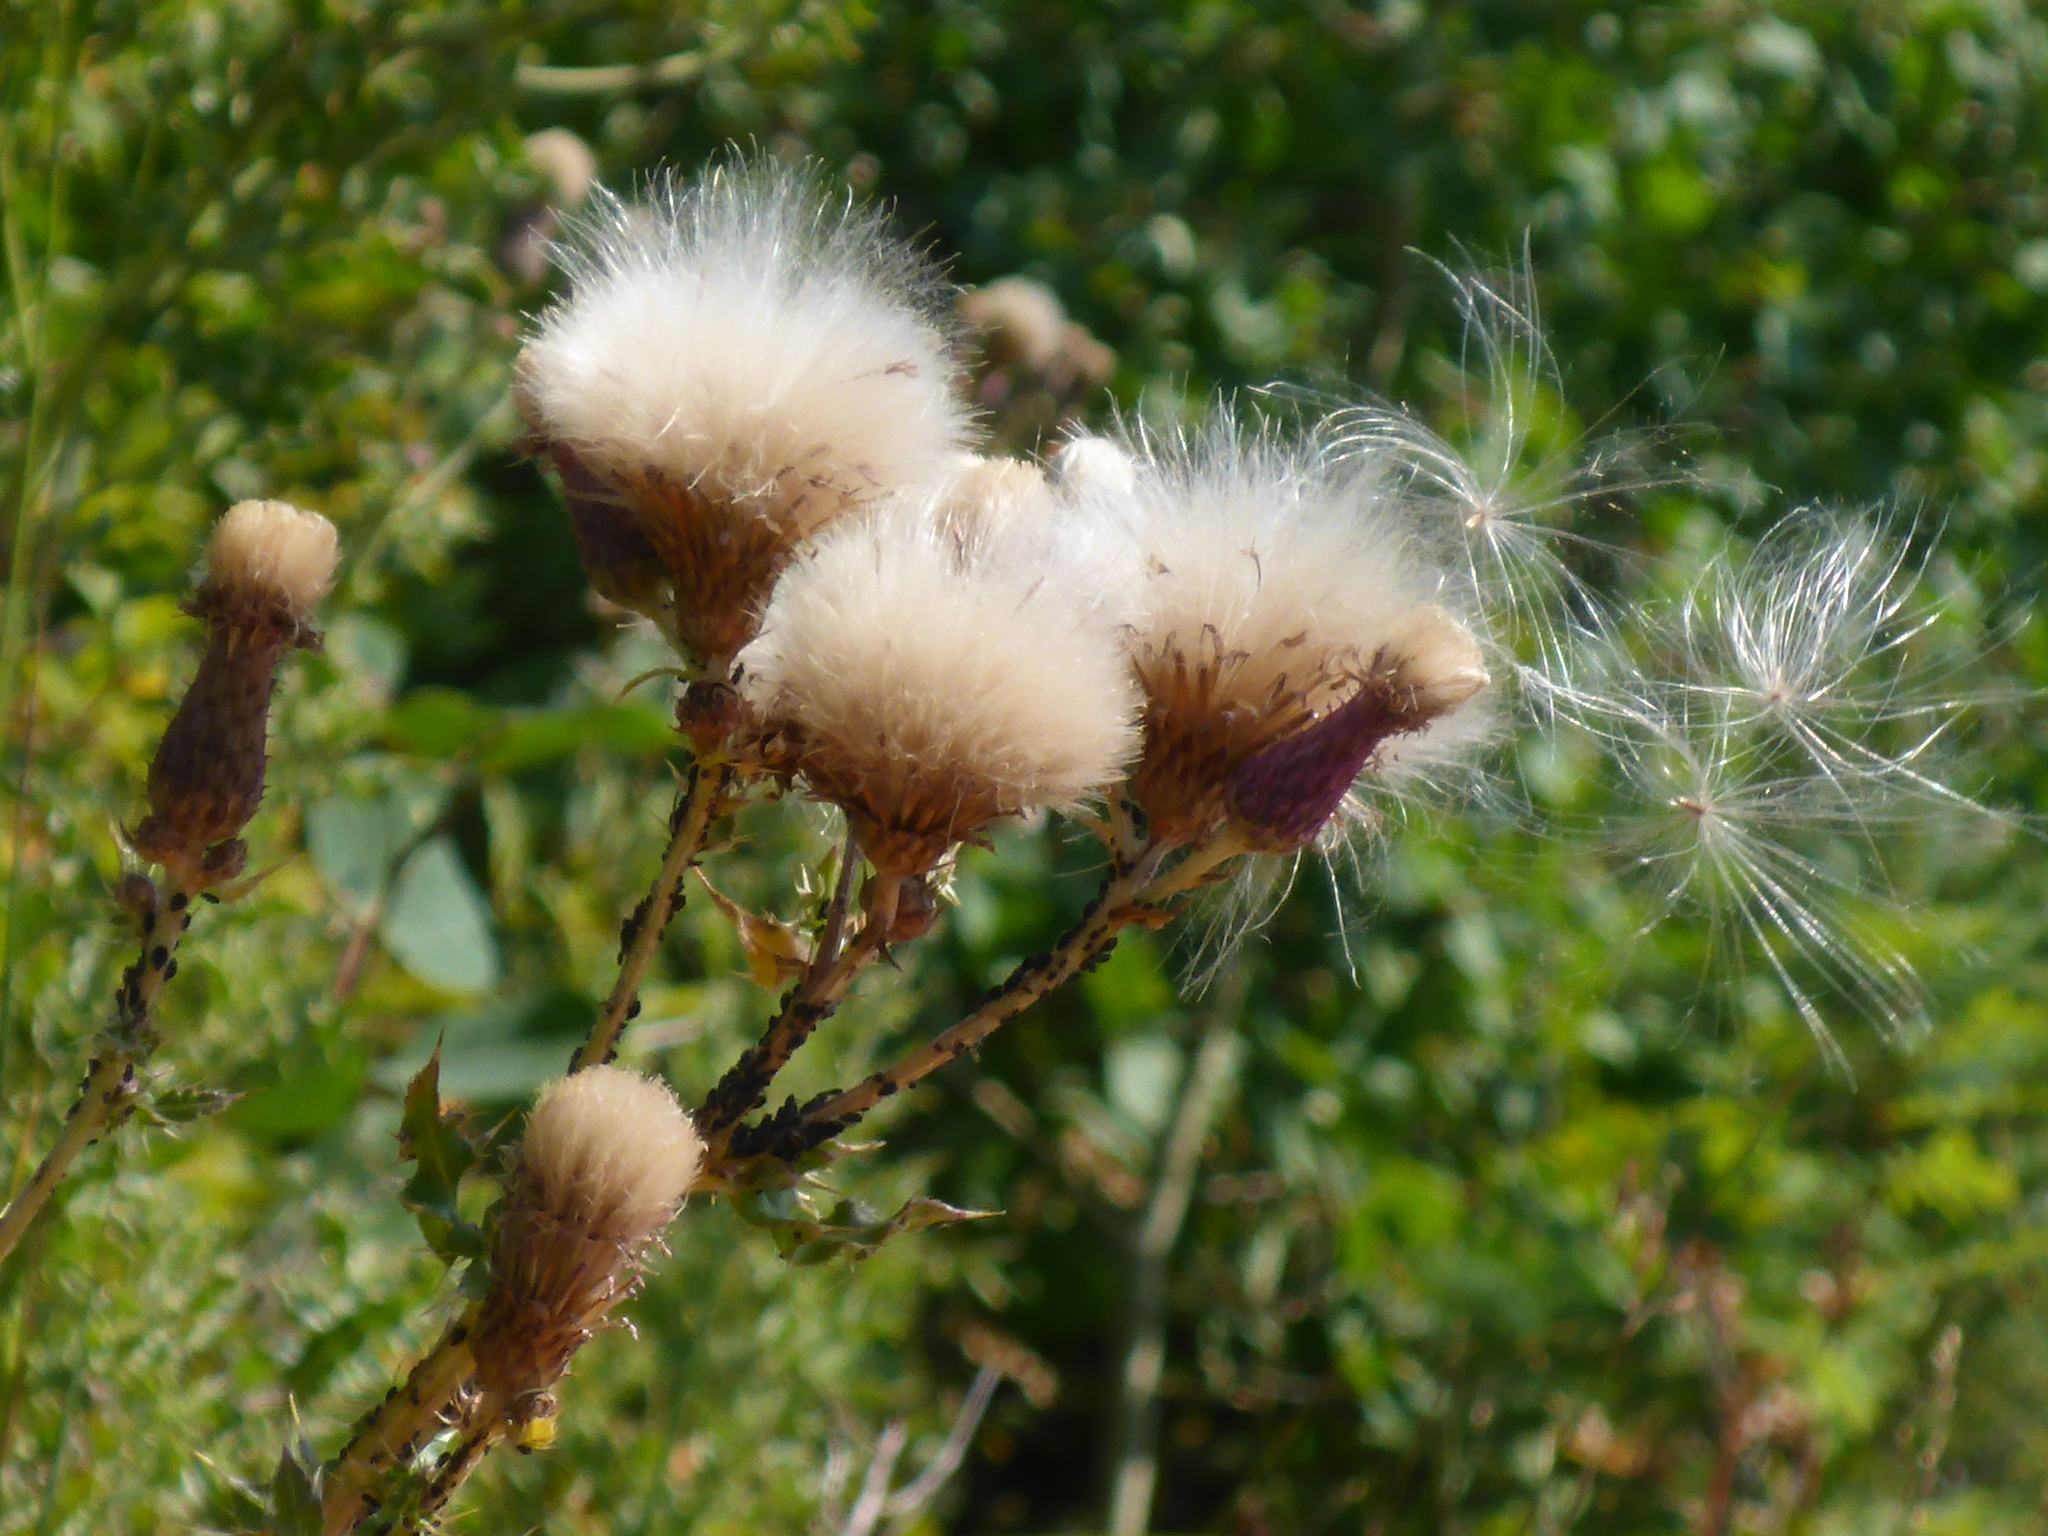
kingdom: Plantae
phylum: Tracheophyta
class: Magnoliopsida
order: Asterales
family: Asteraceae
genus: Cirsium
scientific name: Cirsium arvense
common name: Creeping thistle
